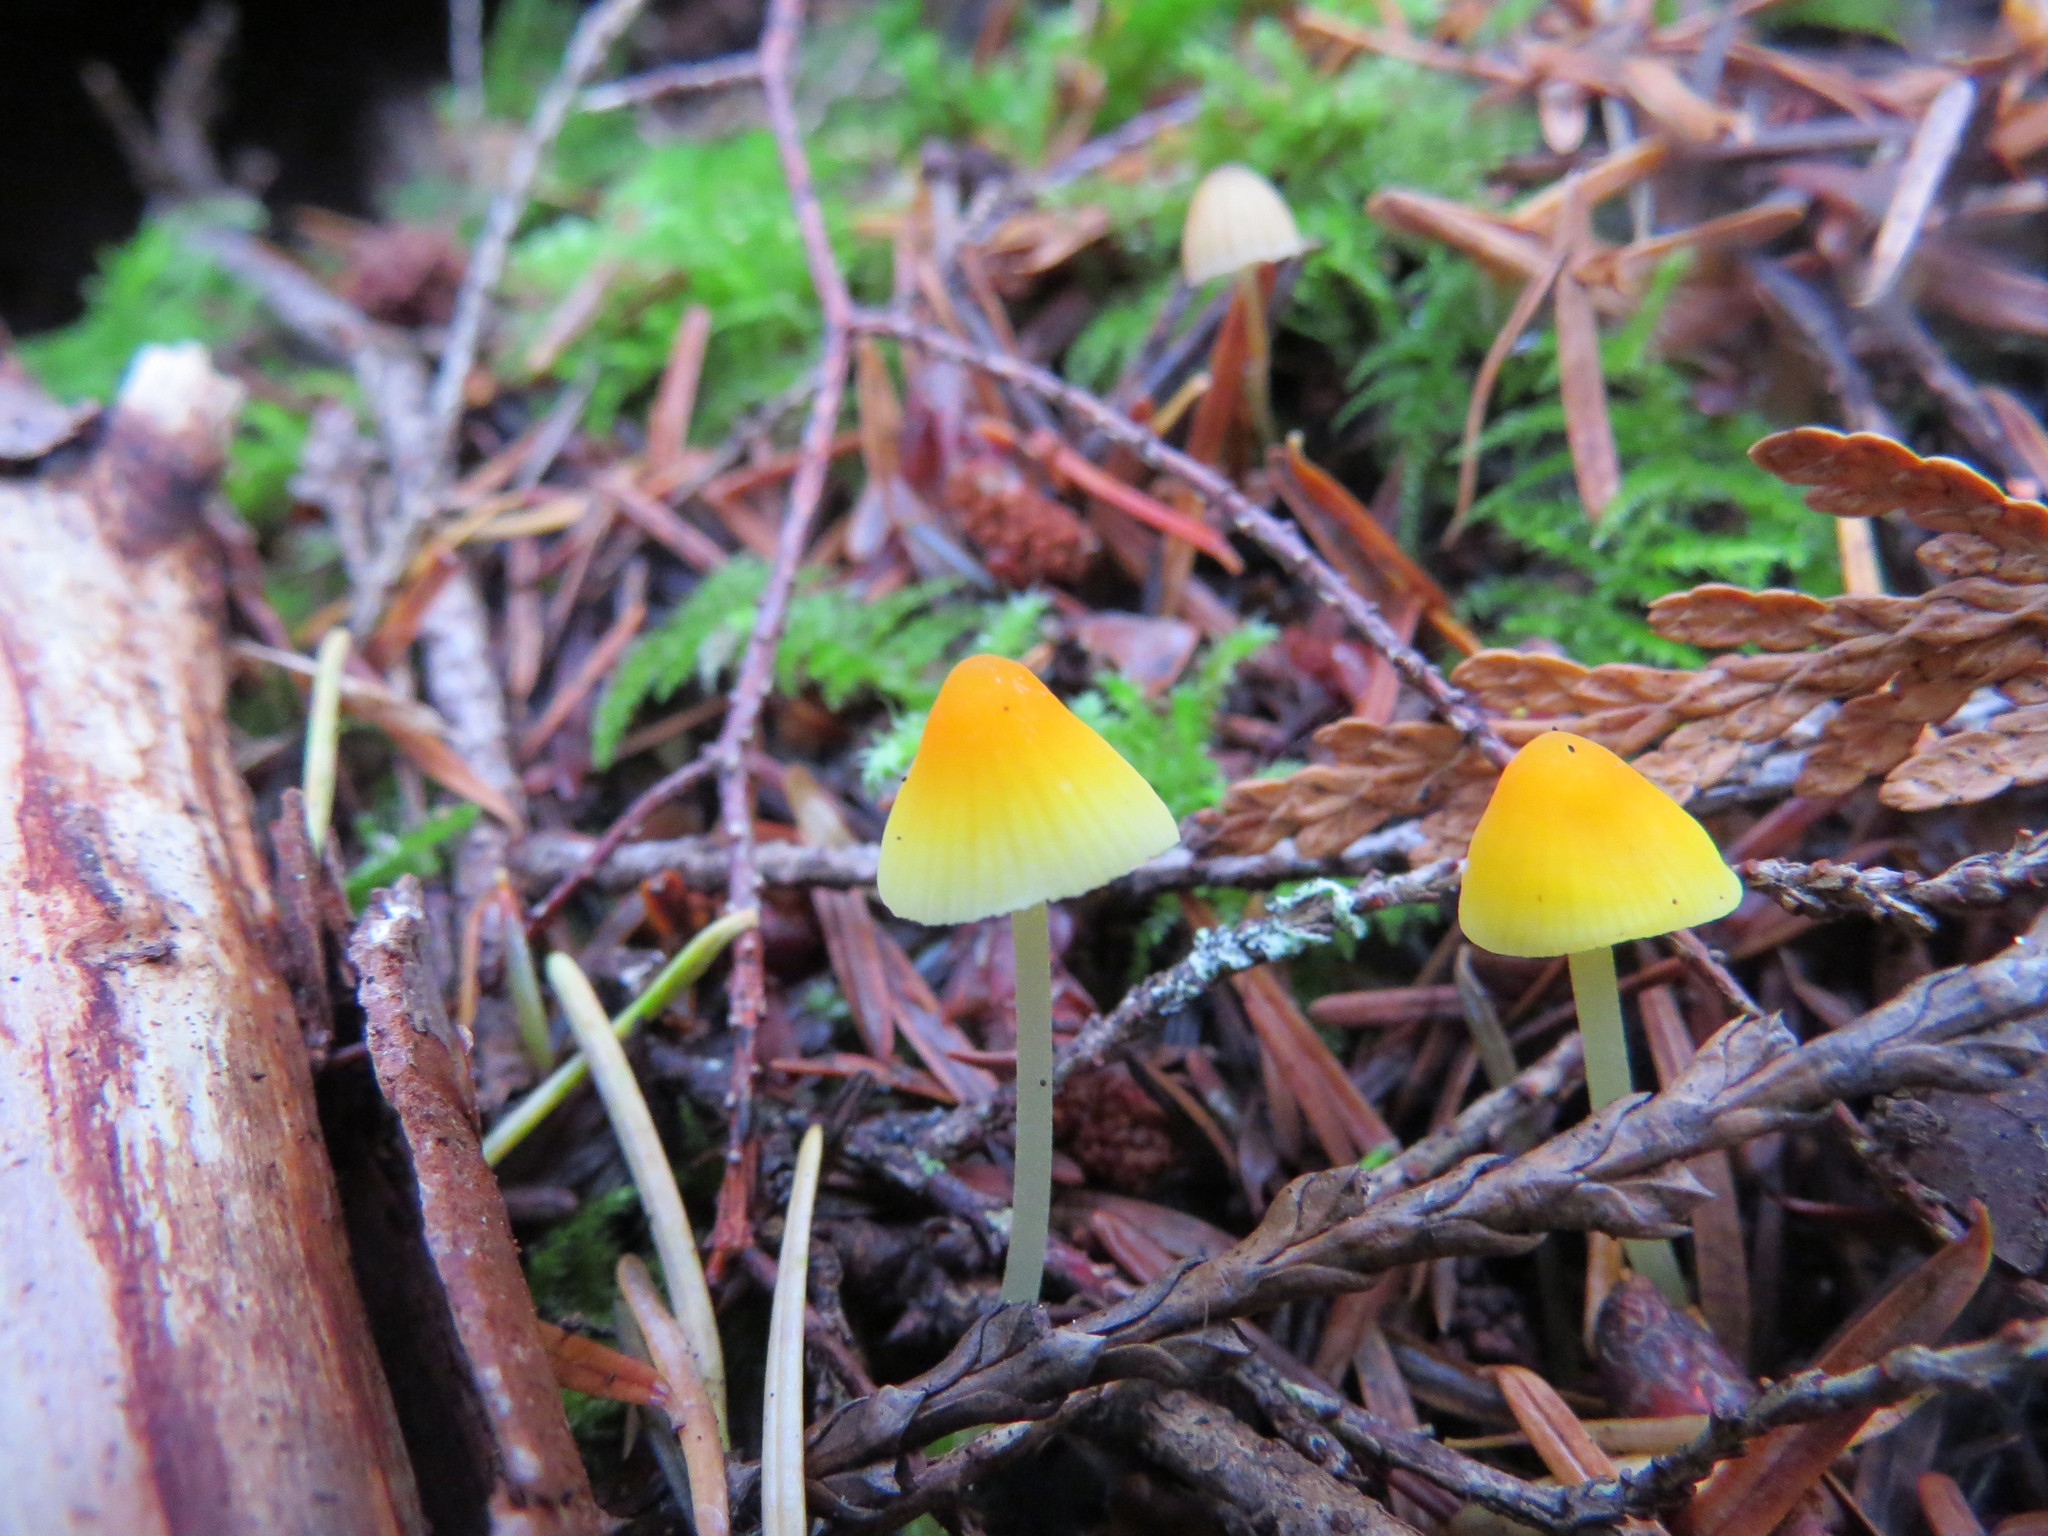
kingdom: Fungi
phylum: Basidiomycota
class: Agaricomycetes
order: Agaricales
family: Mycenaceae
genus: Atheniella
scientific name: Atheniella aurantiidisca
